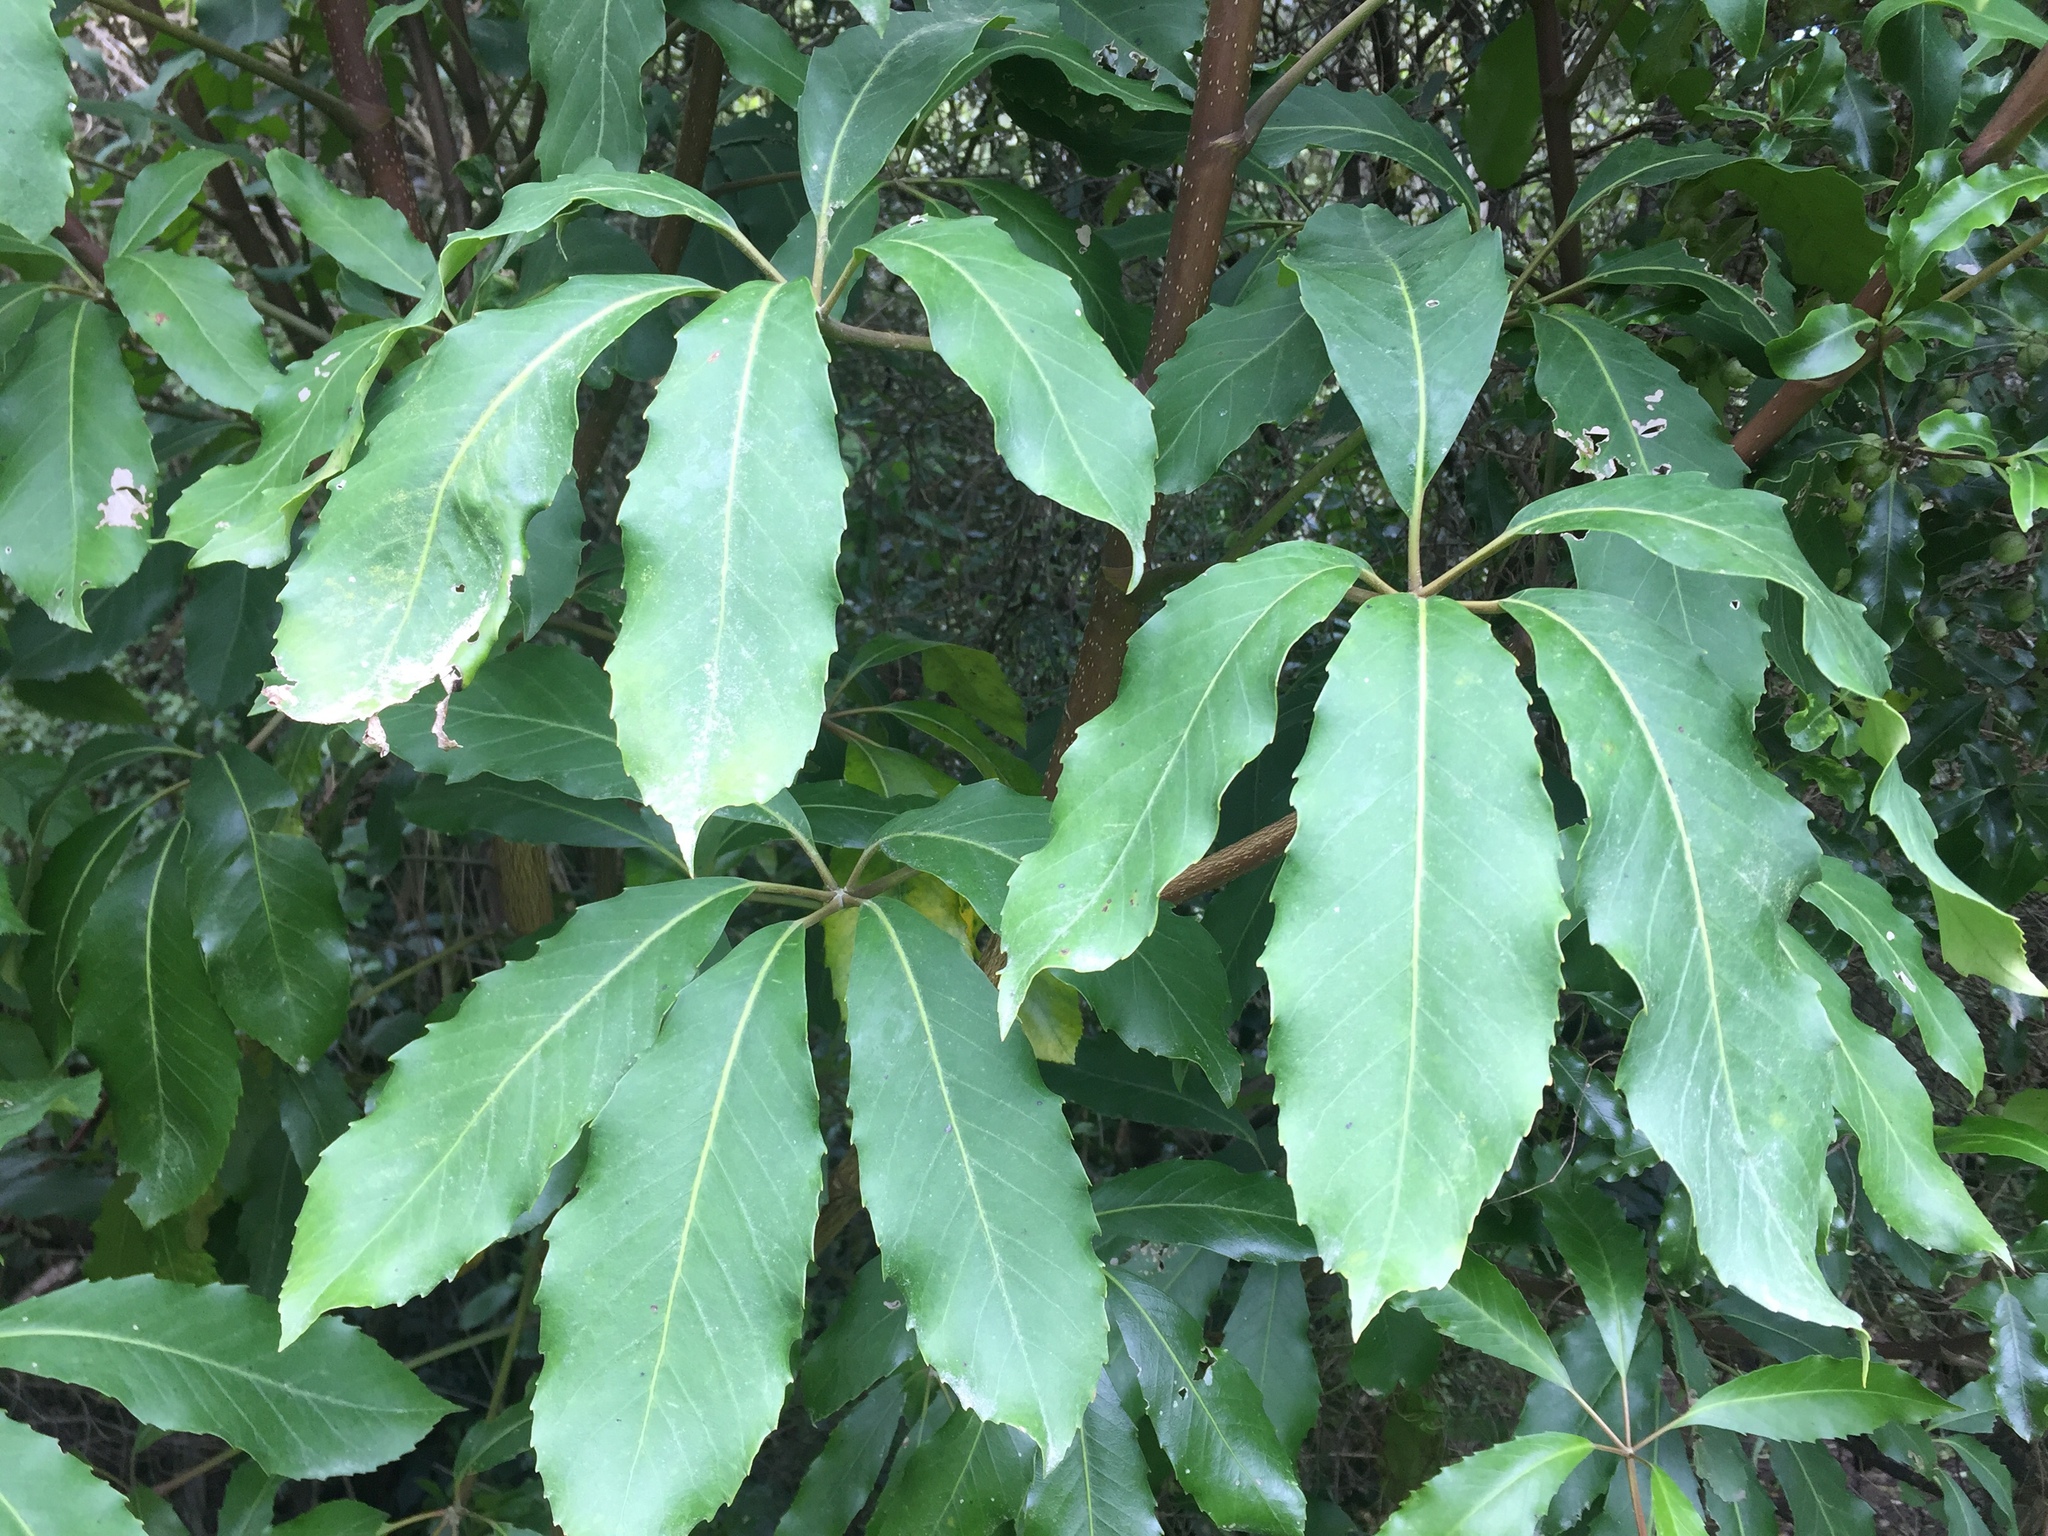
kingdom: Plantae
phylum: Tracheophyta
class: Magnoliopsida
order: Apiales
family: Araliaceae
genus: Neopanax
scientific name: Neopanax arboreus
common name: Five-fingers
